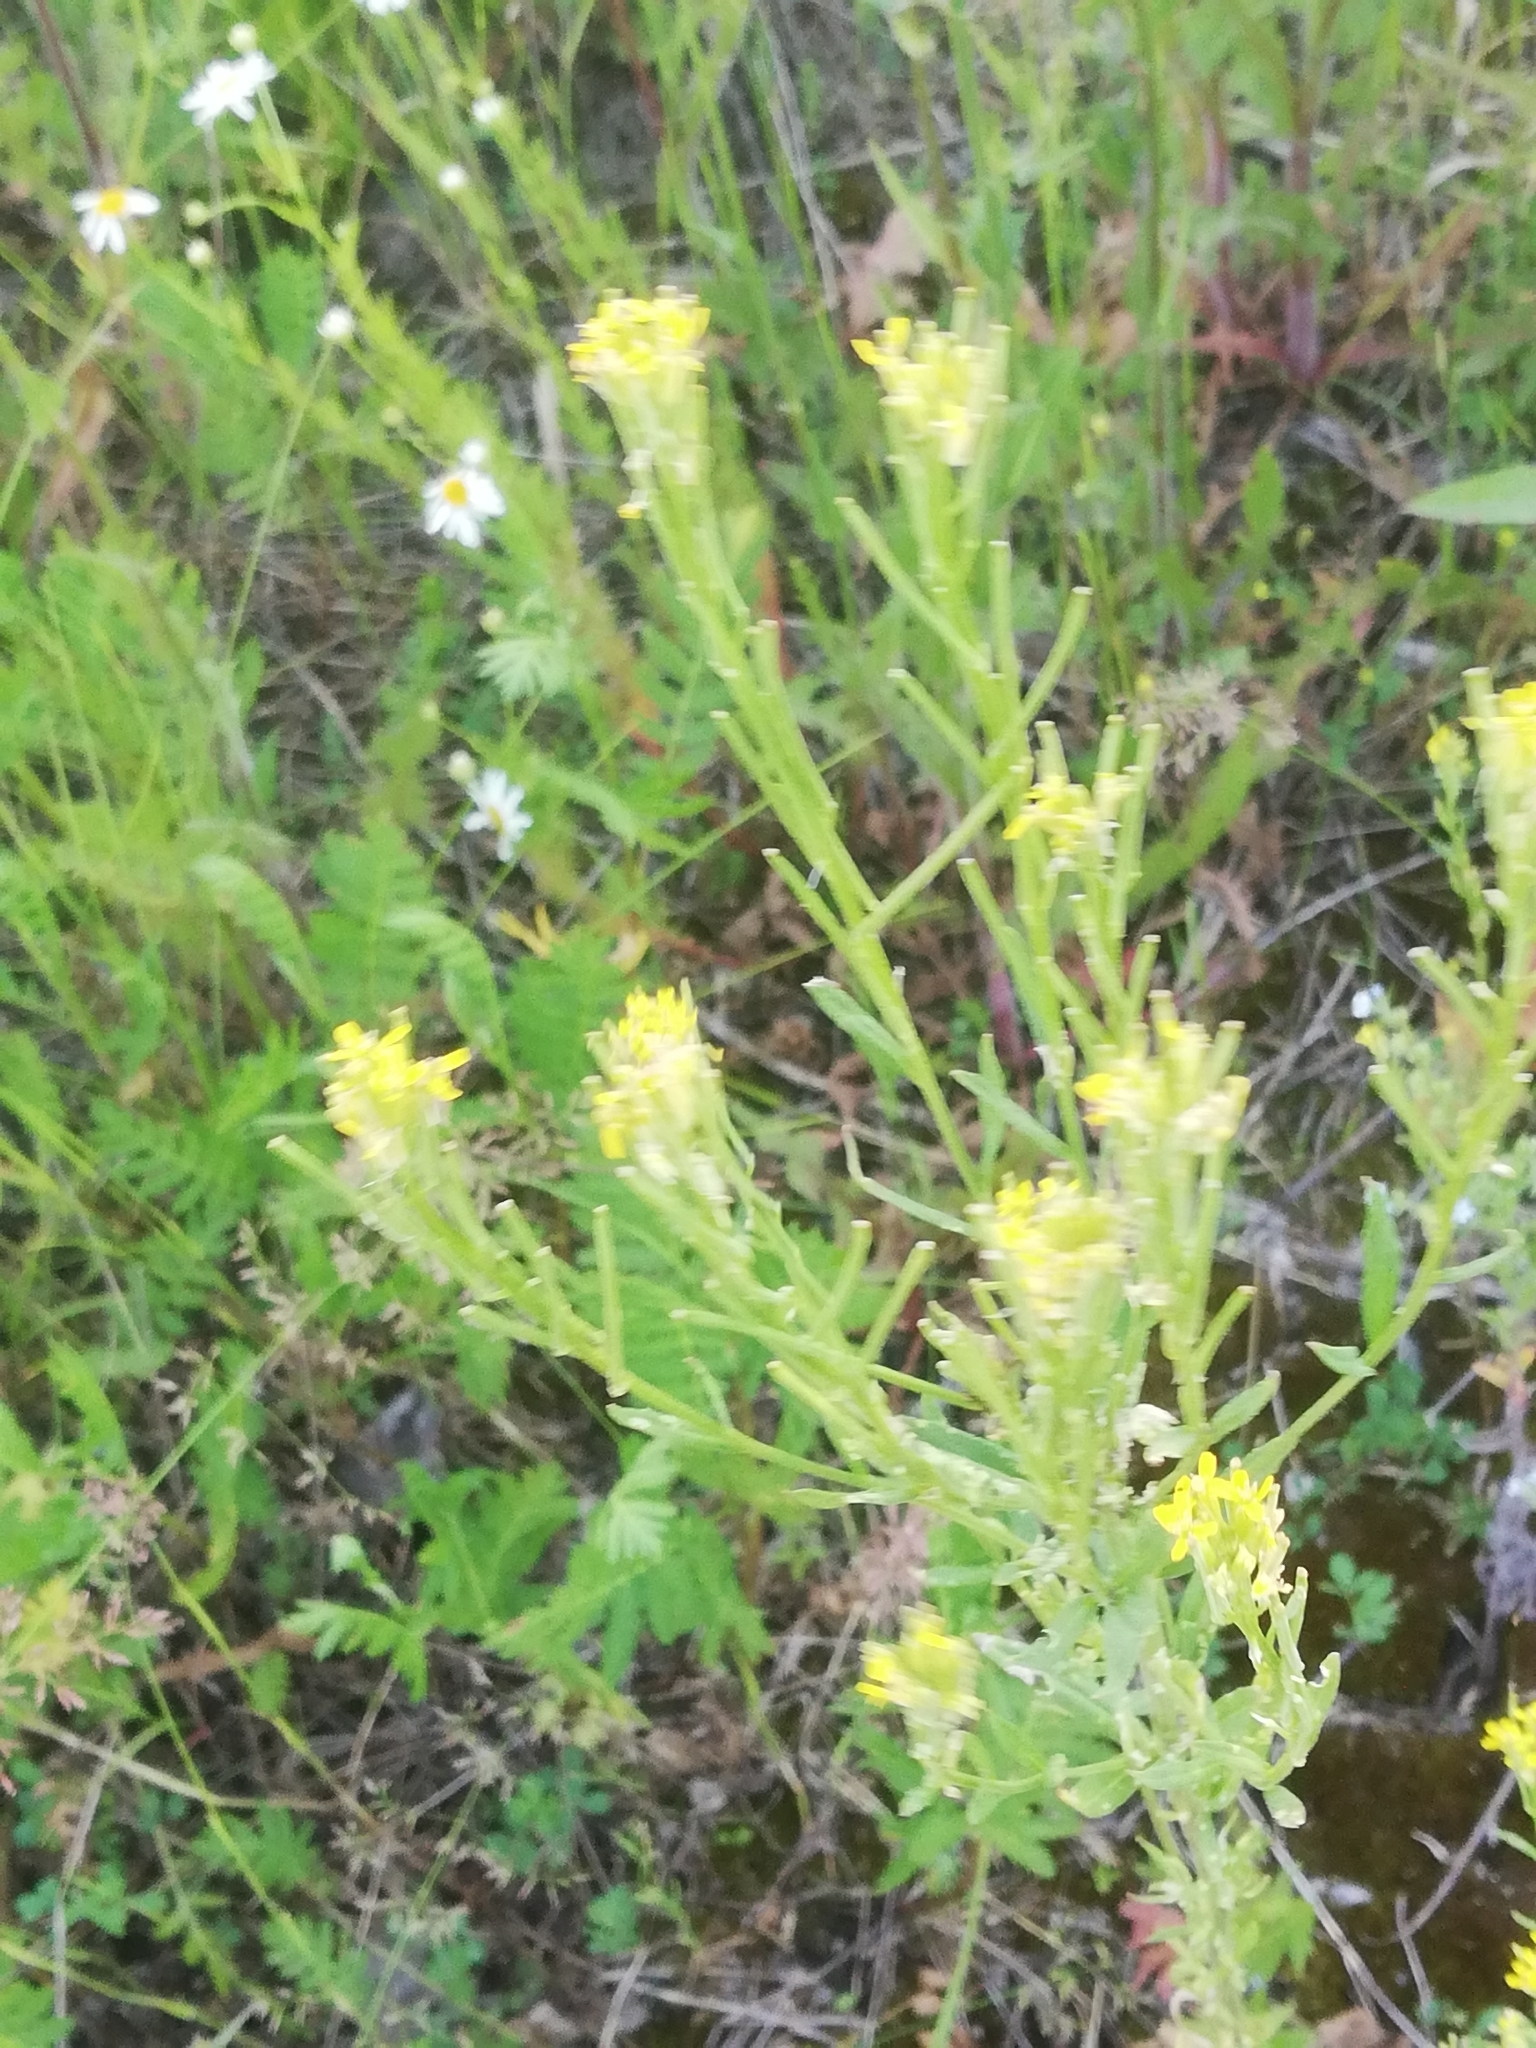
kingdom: Plantae
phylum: Tracheophyta
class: Magnoliopsida
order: Brassicales
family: Brassicaceae
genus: Erysimum
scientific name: Erysimum cheiranthoides
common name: Treacle mustard
